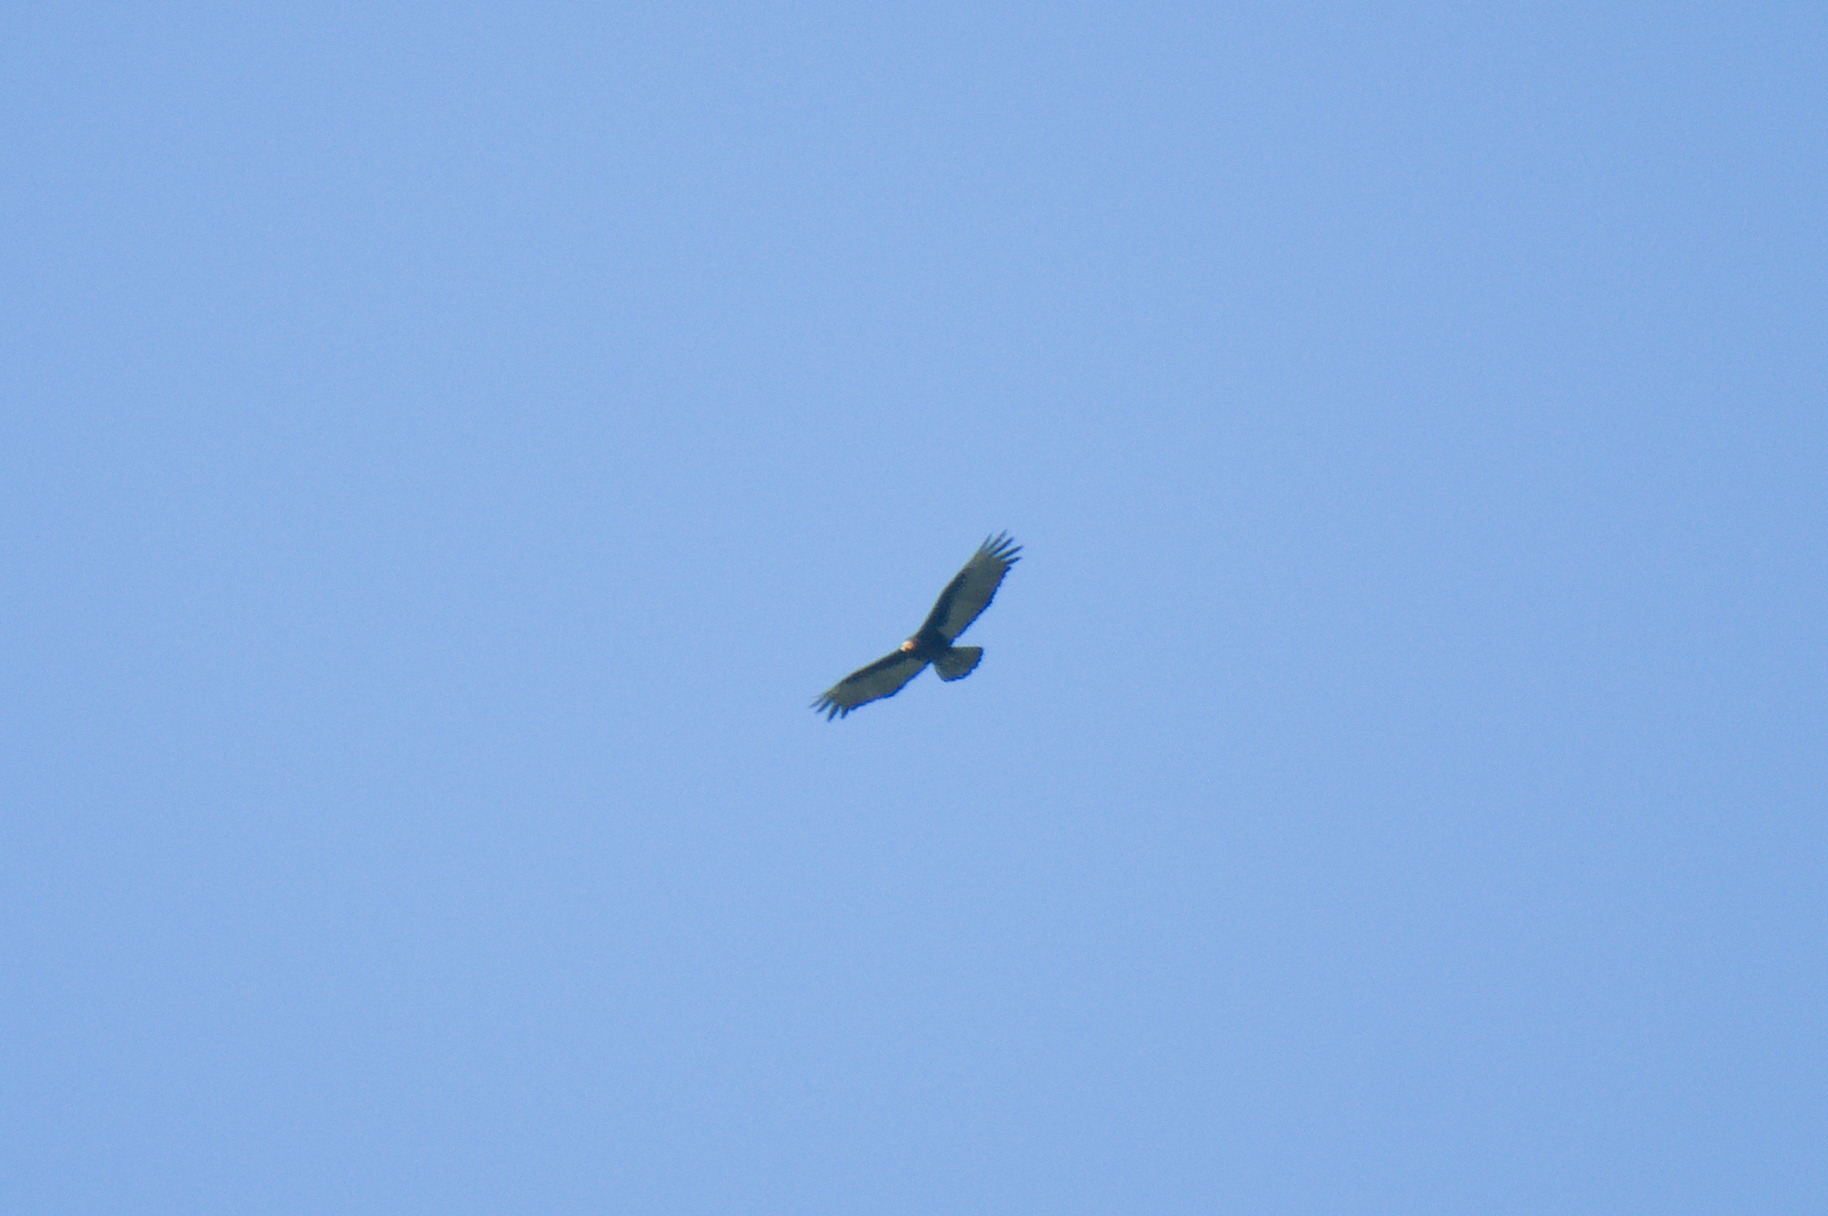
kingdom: Animalia
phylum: Chordata
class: Aves
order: Accipitriformes
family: Cathartidae
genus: Cathartes
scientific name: Cathartes burrovianus
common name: Lesser yellow-headed vulture
